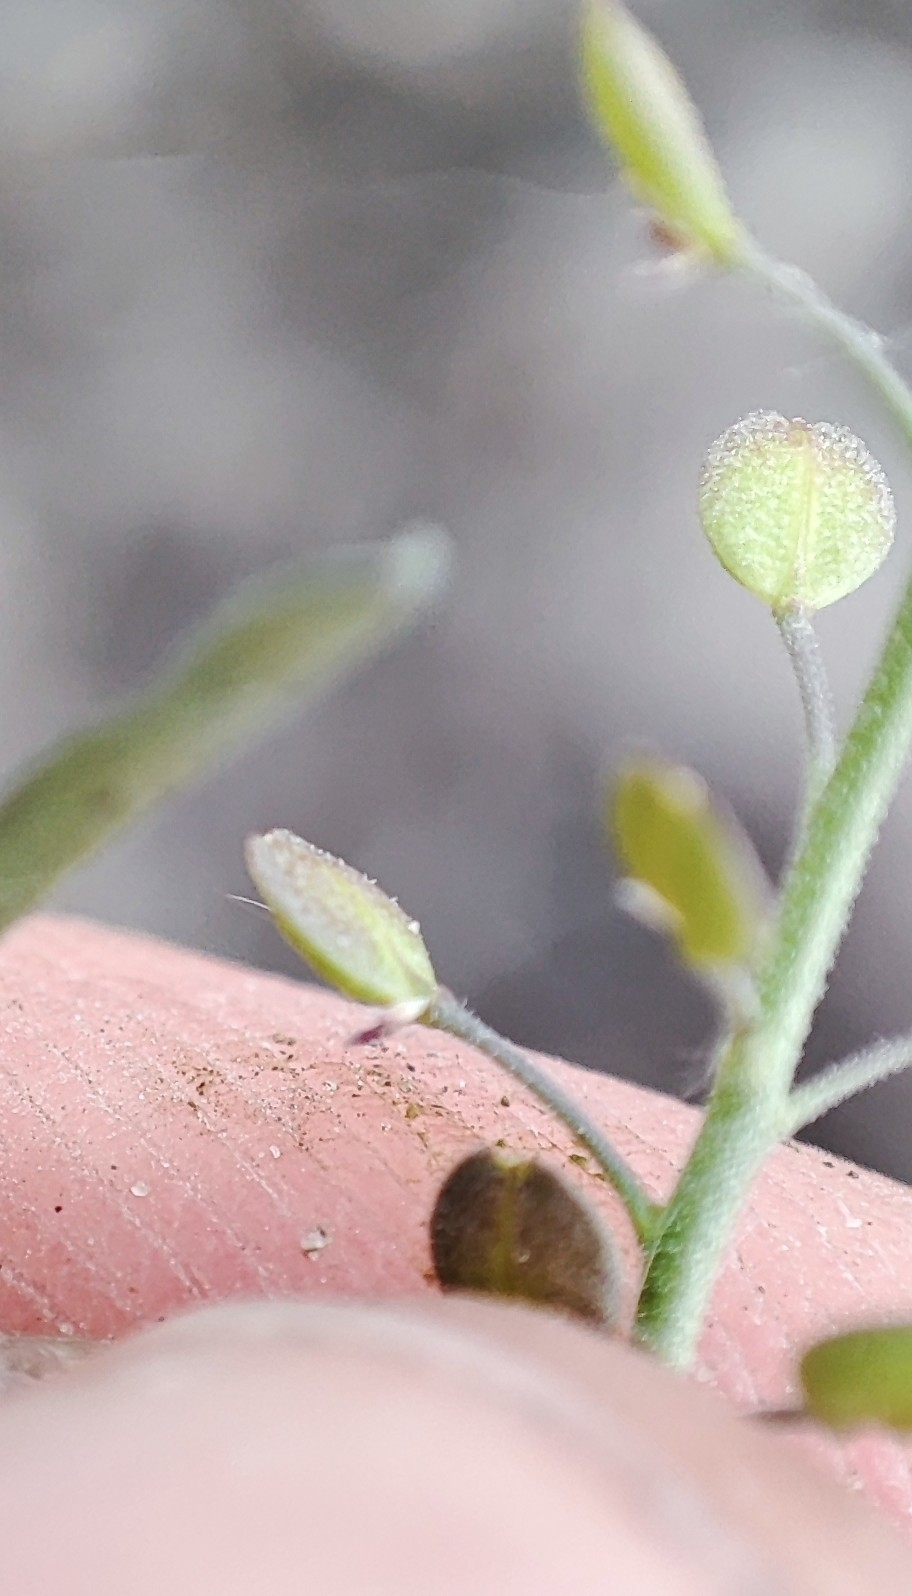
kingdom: Plantae
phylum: Tracheophyta
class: Magnoliopsida
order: Brassicales
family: Brassicaceae
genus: Lepidium
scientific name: Lepidium ruderale
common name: Narrow-leaved pepperwort
